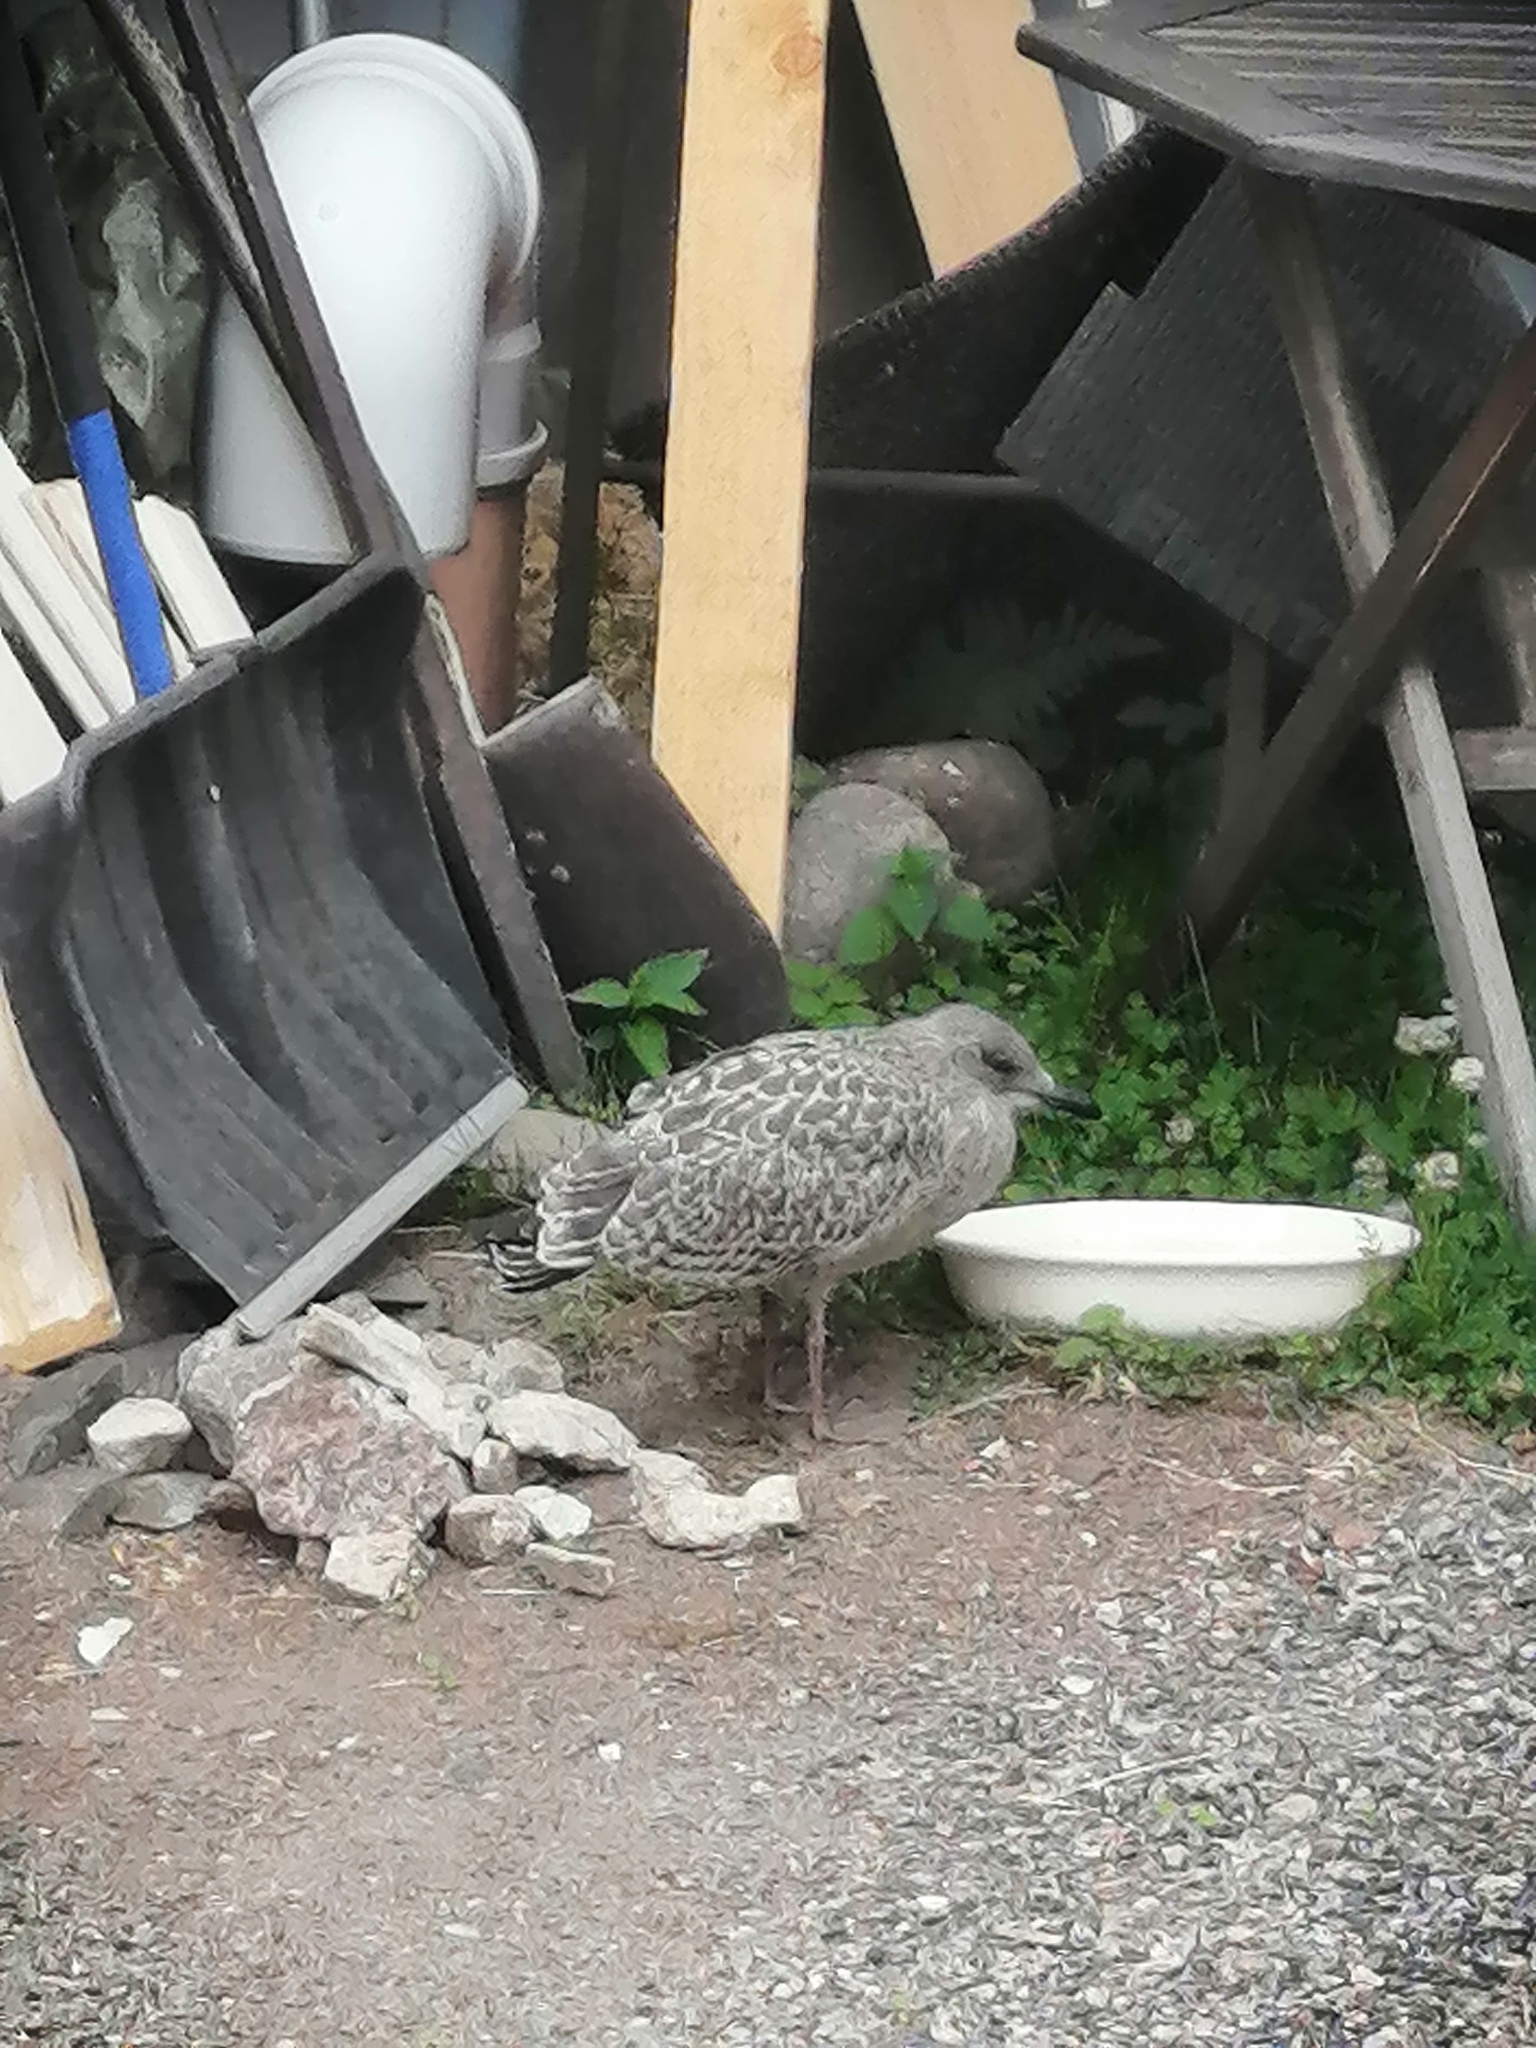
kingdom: Animalia
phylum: Chordata
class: Aves
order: Charadriiformes
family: Laridae
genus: Larus
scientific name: Larus argentatus
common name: Herring gull
